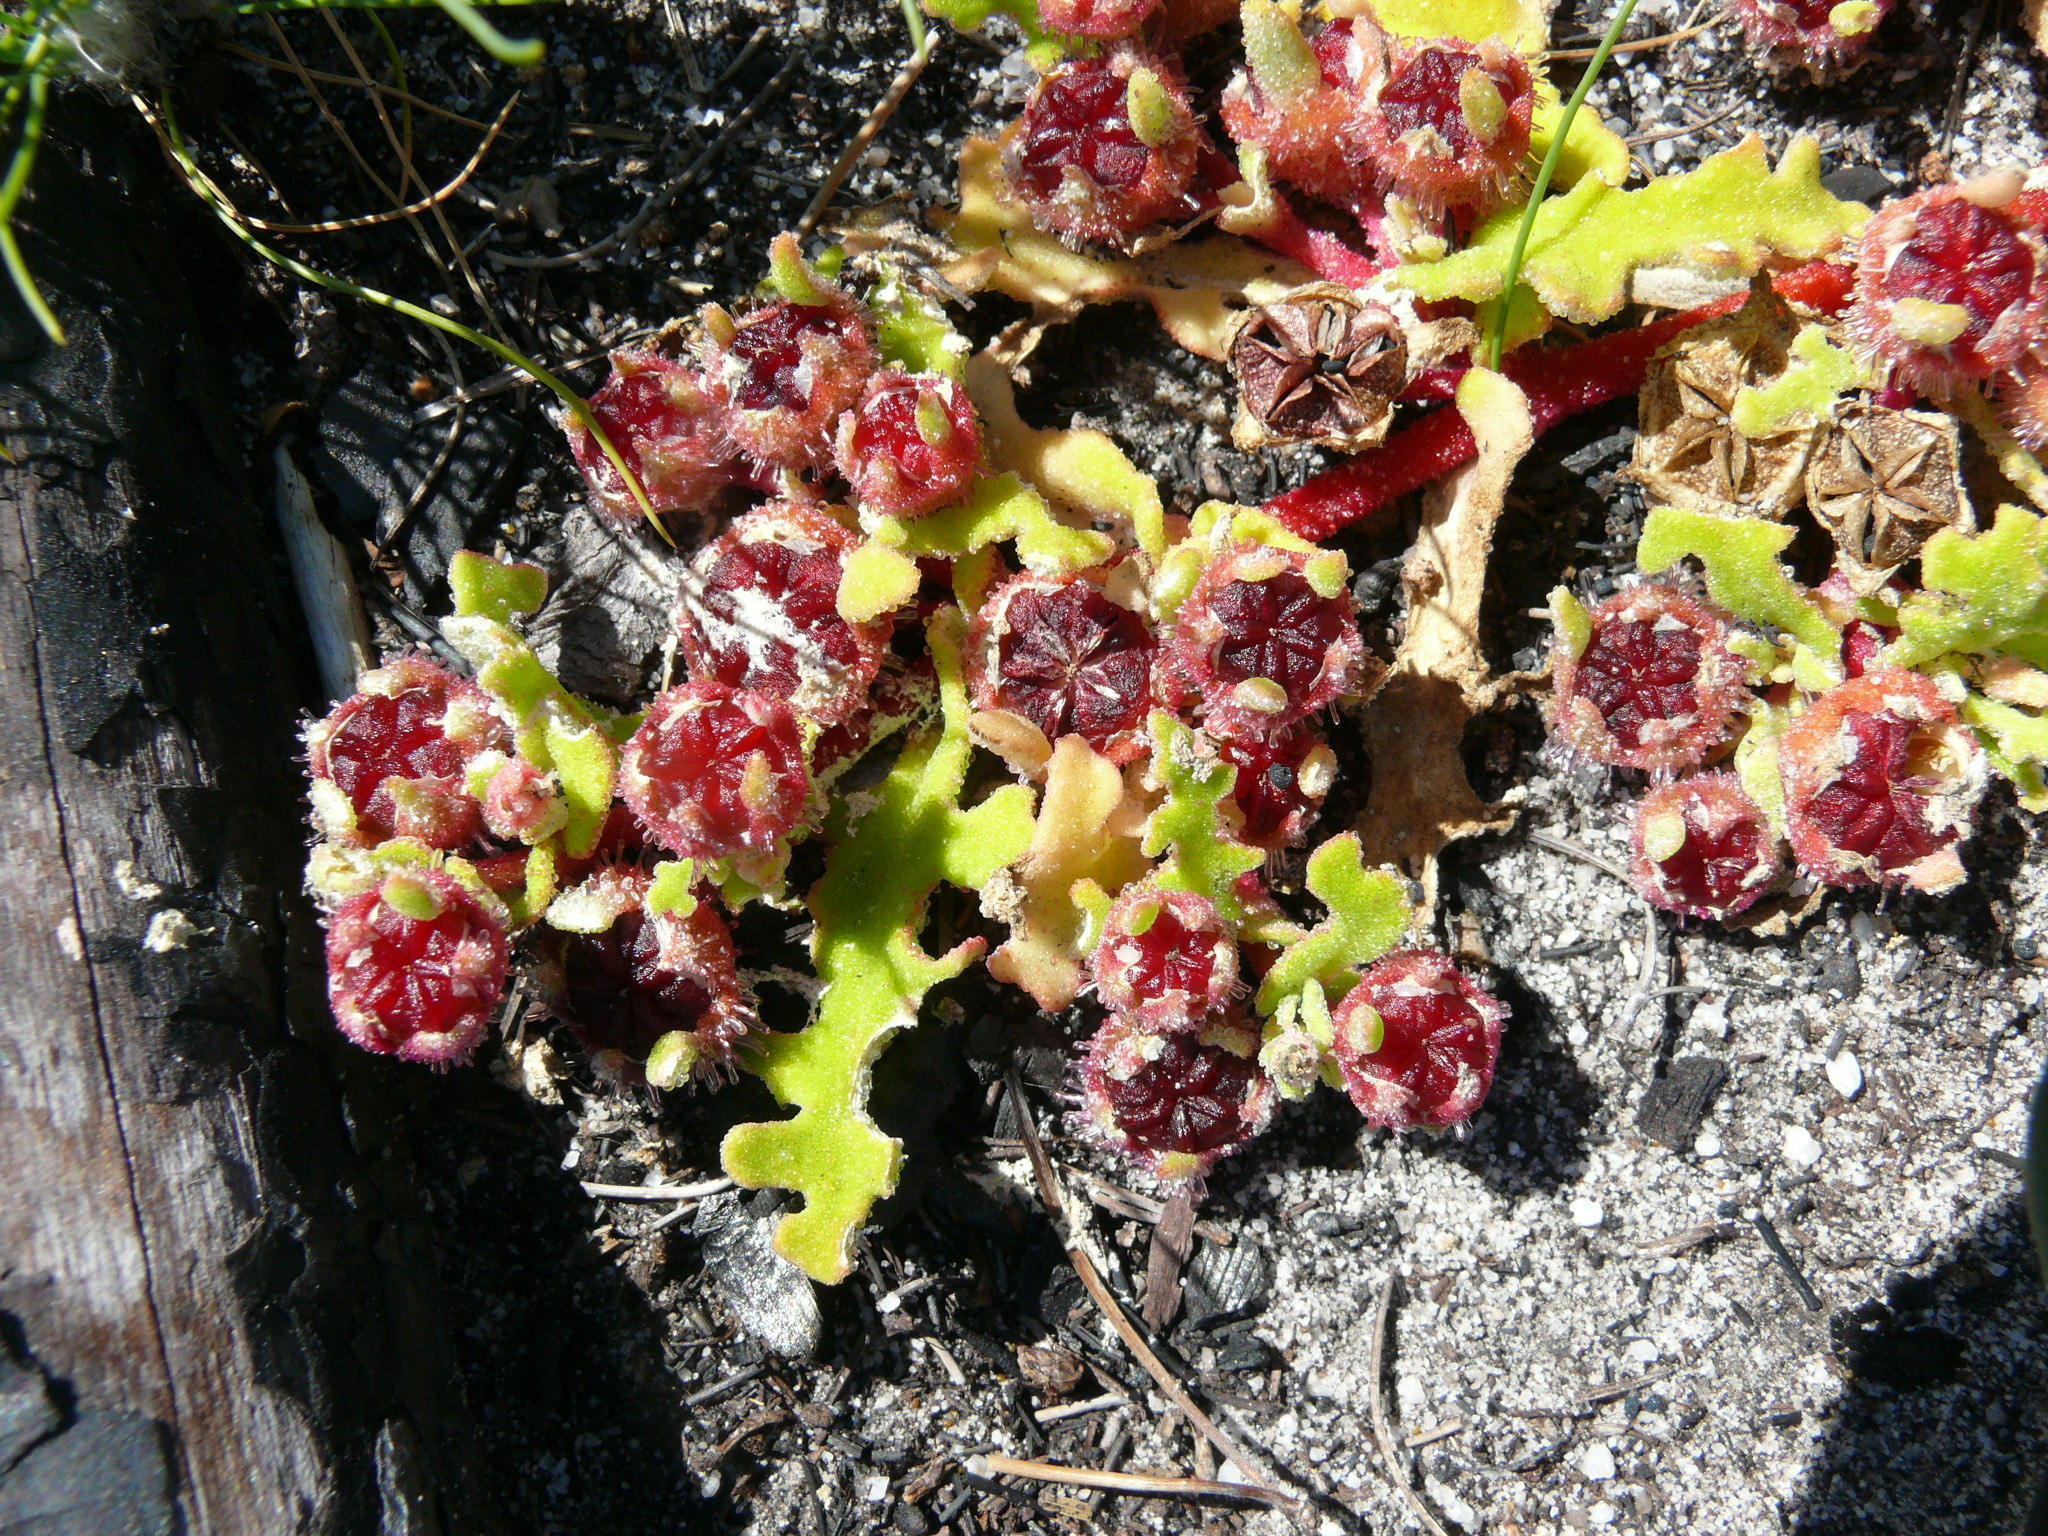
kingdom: Plantae
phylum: Tracheophyta
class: Magnoliopsida
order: Caryophyllales
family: Aizoaceae
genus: Cleretum
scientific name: Cleretum herrei
